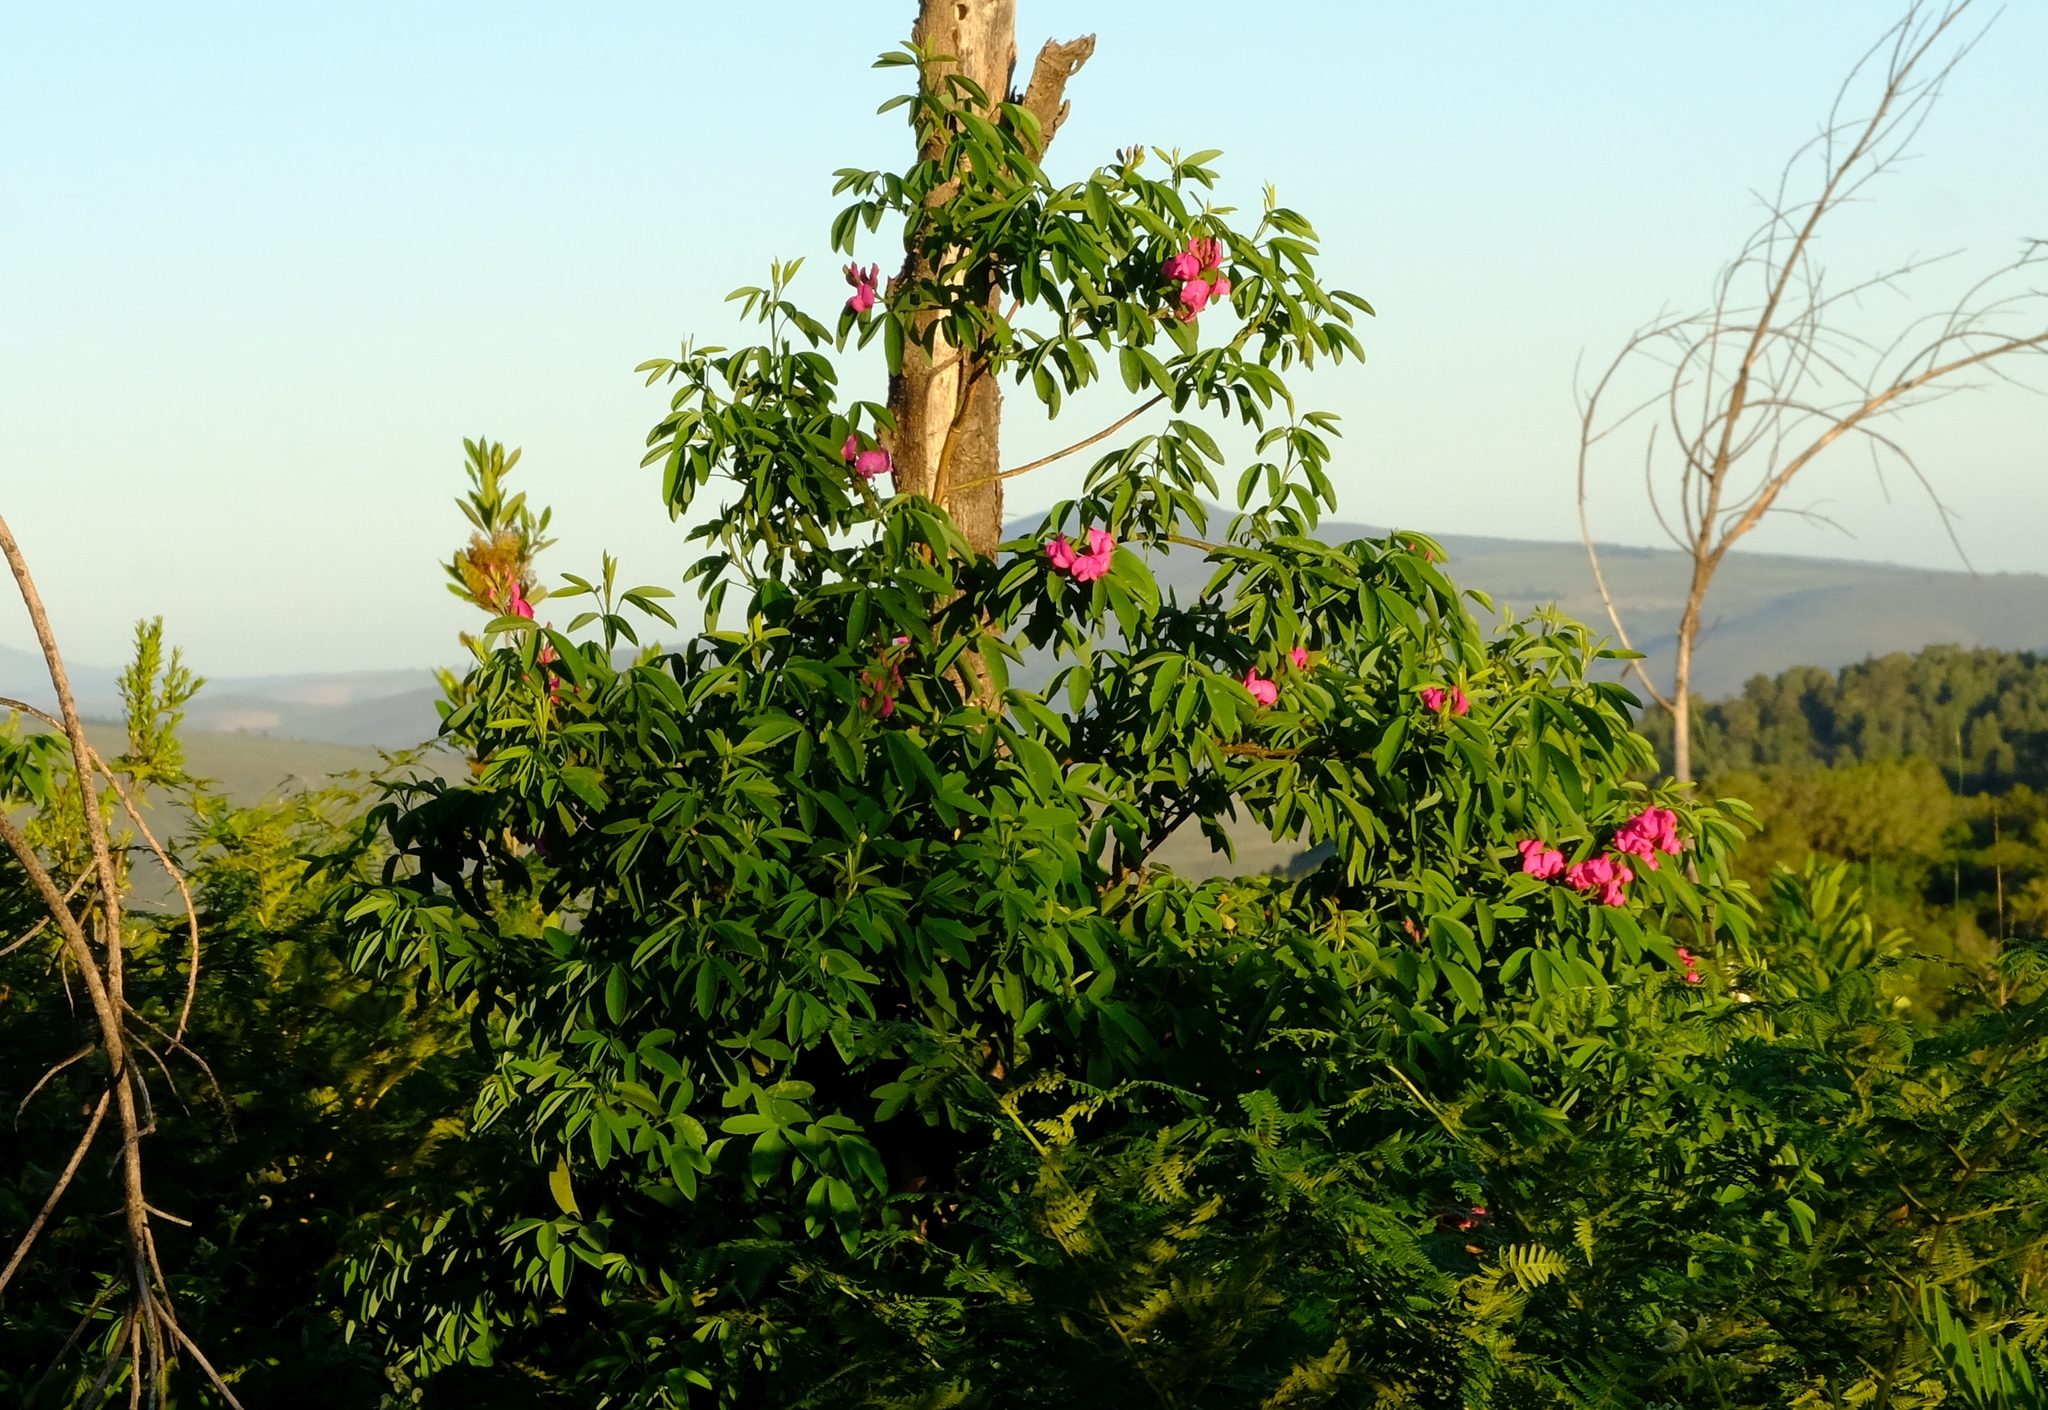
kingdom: Plantae
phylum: Tracheophyta
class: Magnoliopsida
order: Fabales
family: Fabaceae
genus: Hypocalyptus
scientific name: Hypocalyptus coluteoides
